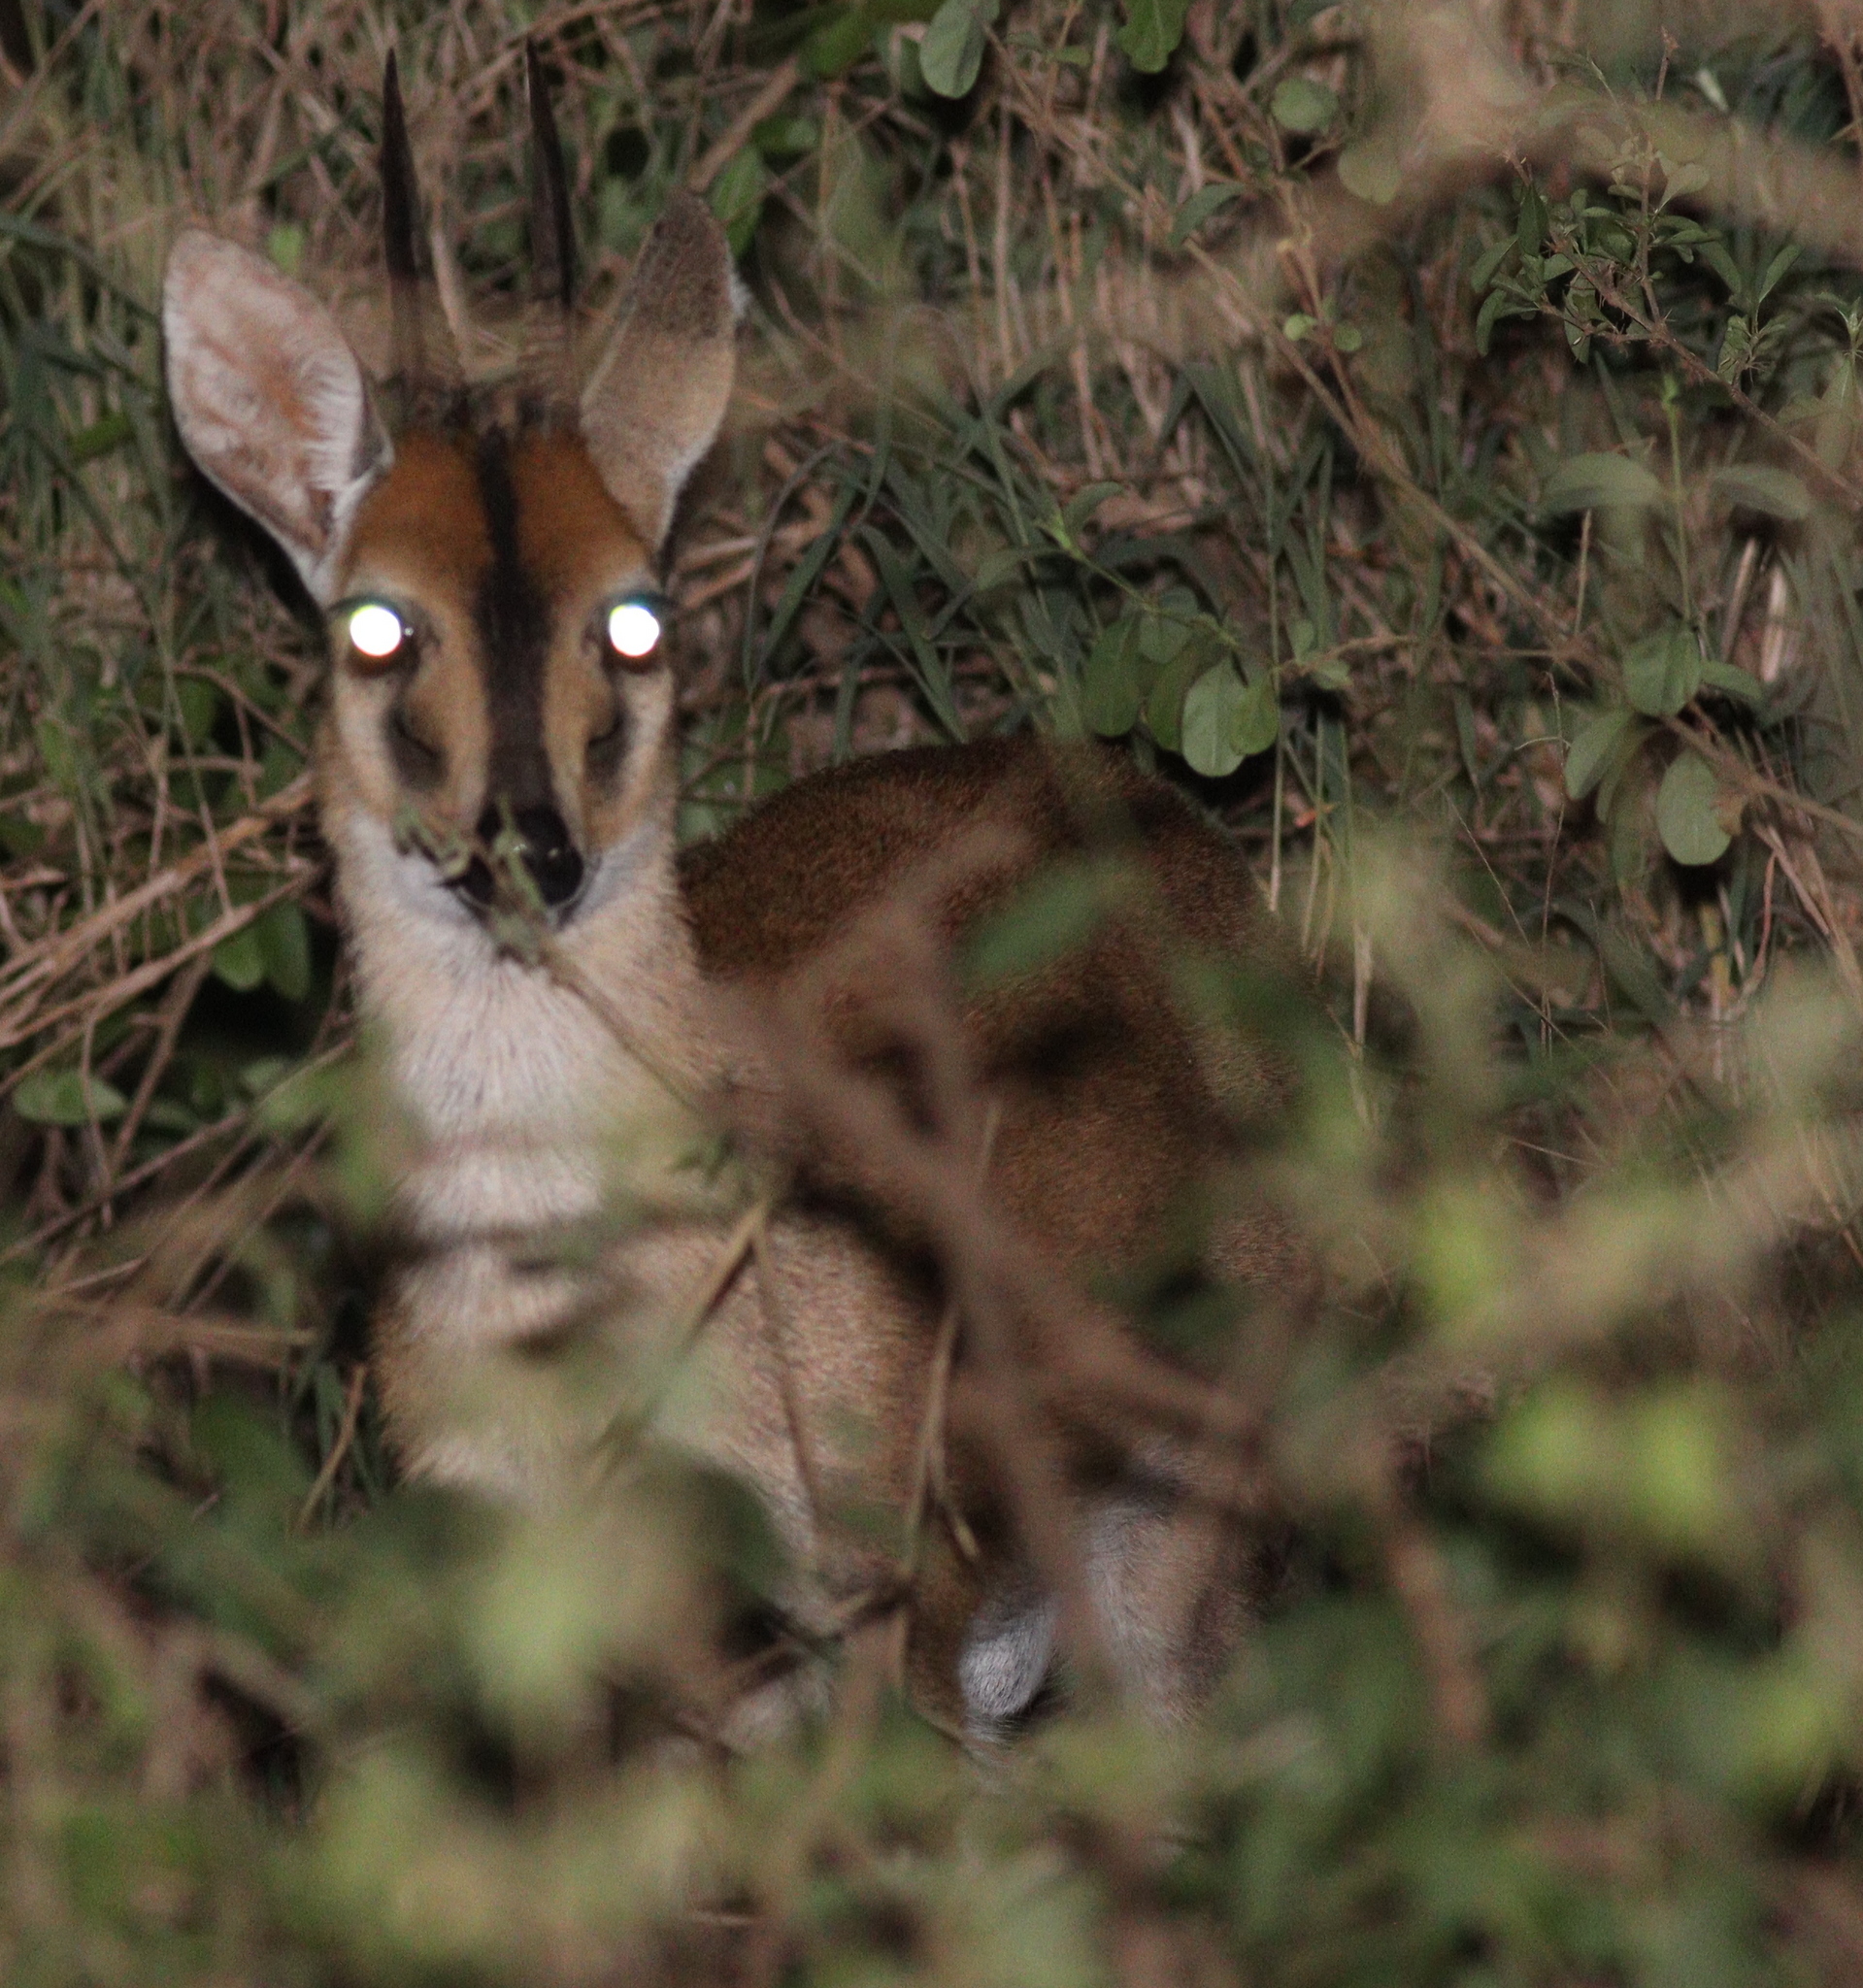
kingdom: Animalia
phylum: Chordata
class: Mammalia
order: Artiodactyla
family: Bovidae
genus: Sylvicapra
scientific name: Sylvicapra grimmia
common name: Bush duiker
